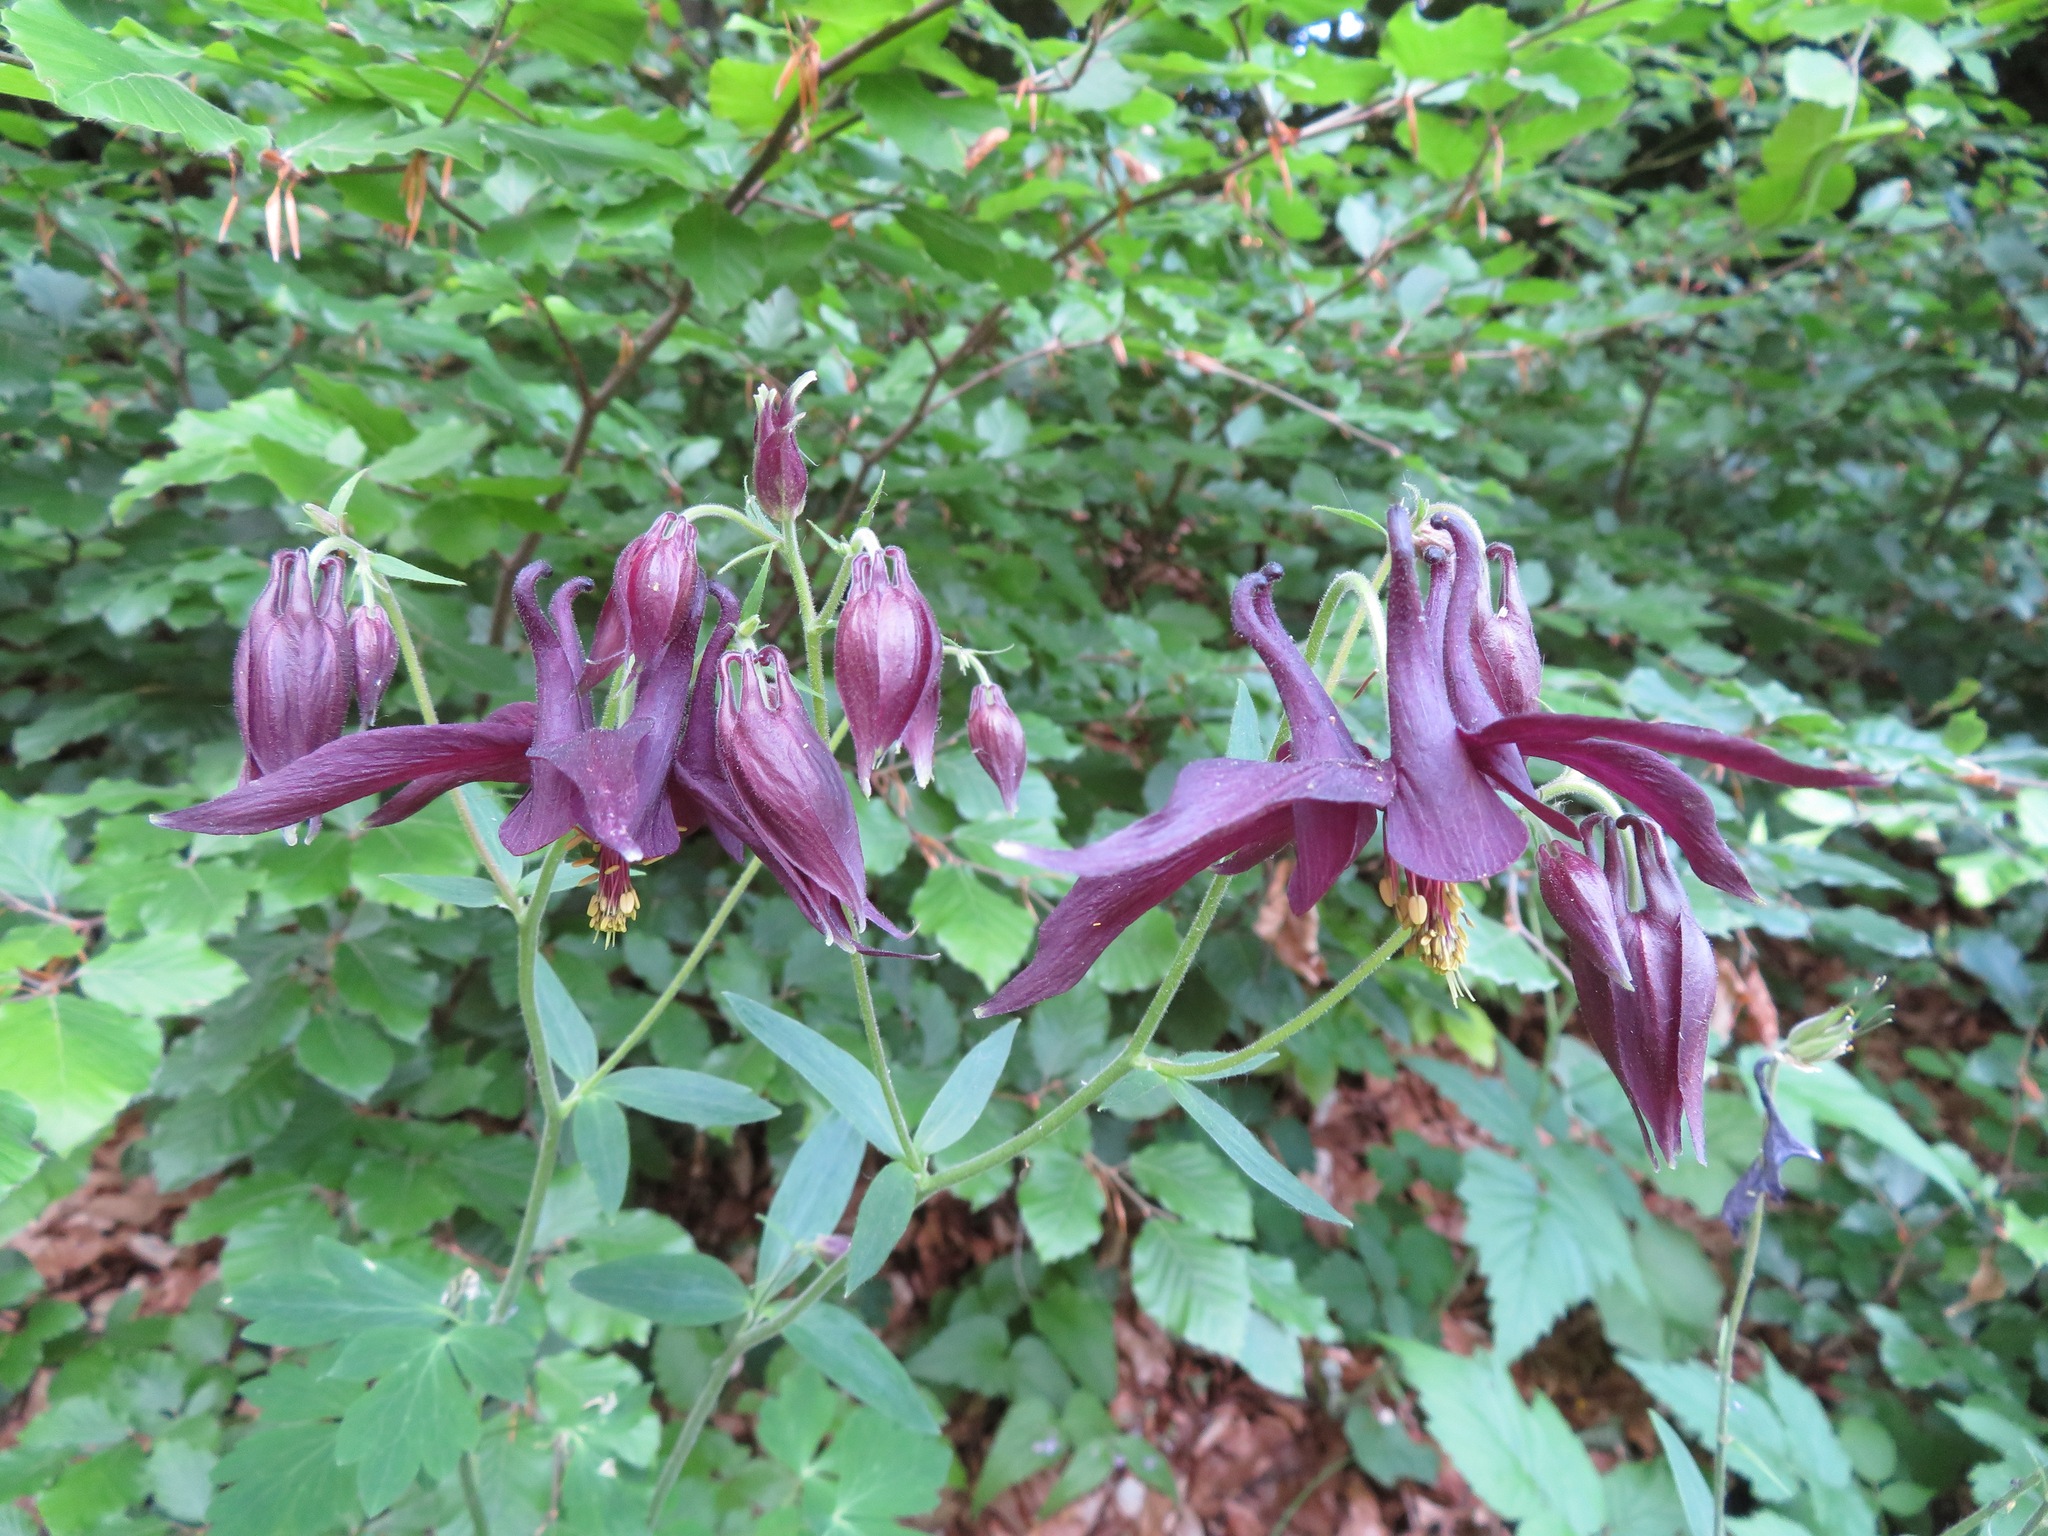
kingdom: Plantae
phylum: Tracheophyta
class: Magnoliopsida
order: Ranunculales
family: Ranunculaceae
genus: Aquilegia
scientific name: Aquilegia atrata
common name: Dark columbine
